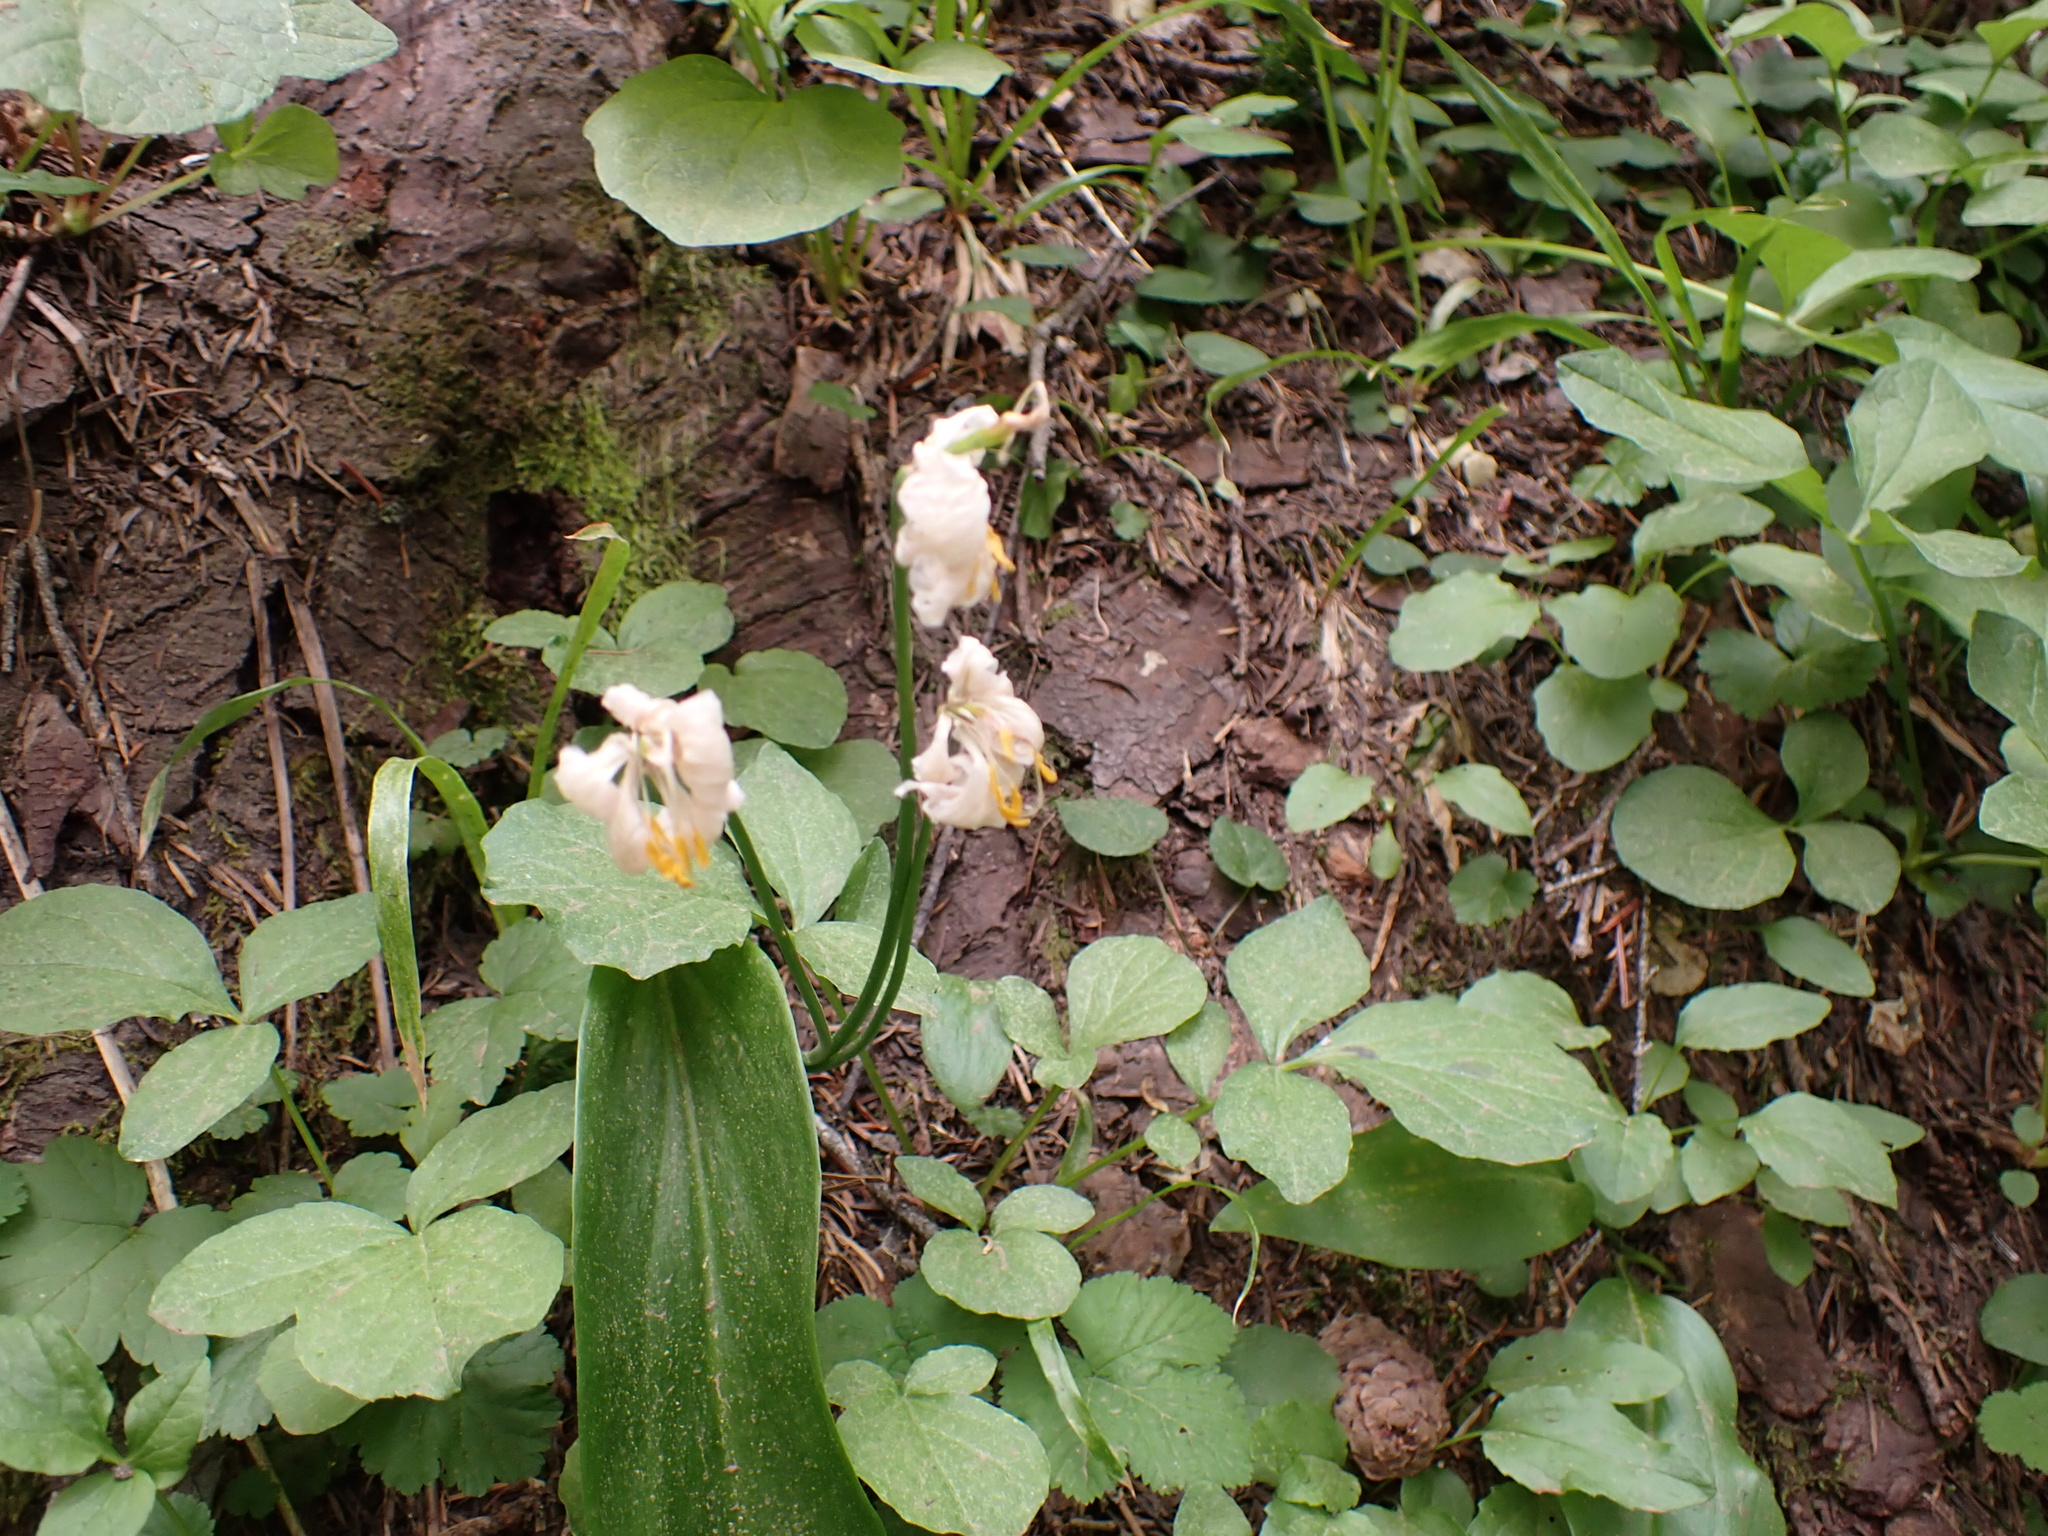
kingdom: Plantae
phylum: Tracheophyta
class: Liliopsida
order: Liliales
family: Liliaceae
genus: Erythronium
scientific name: Erythronium montanum
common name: Avalanche lily
